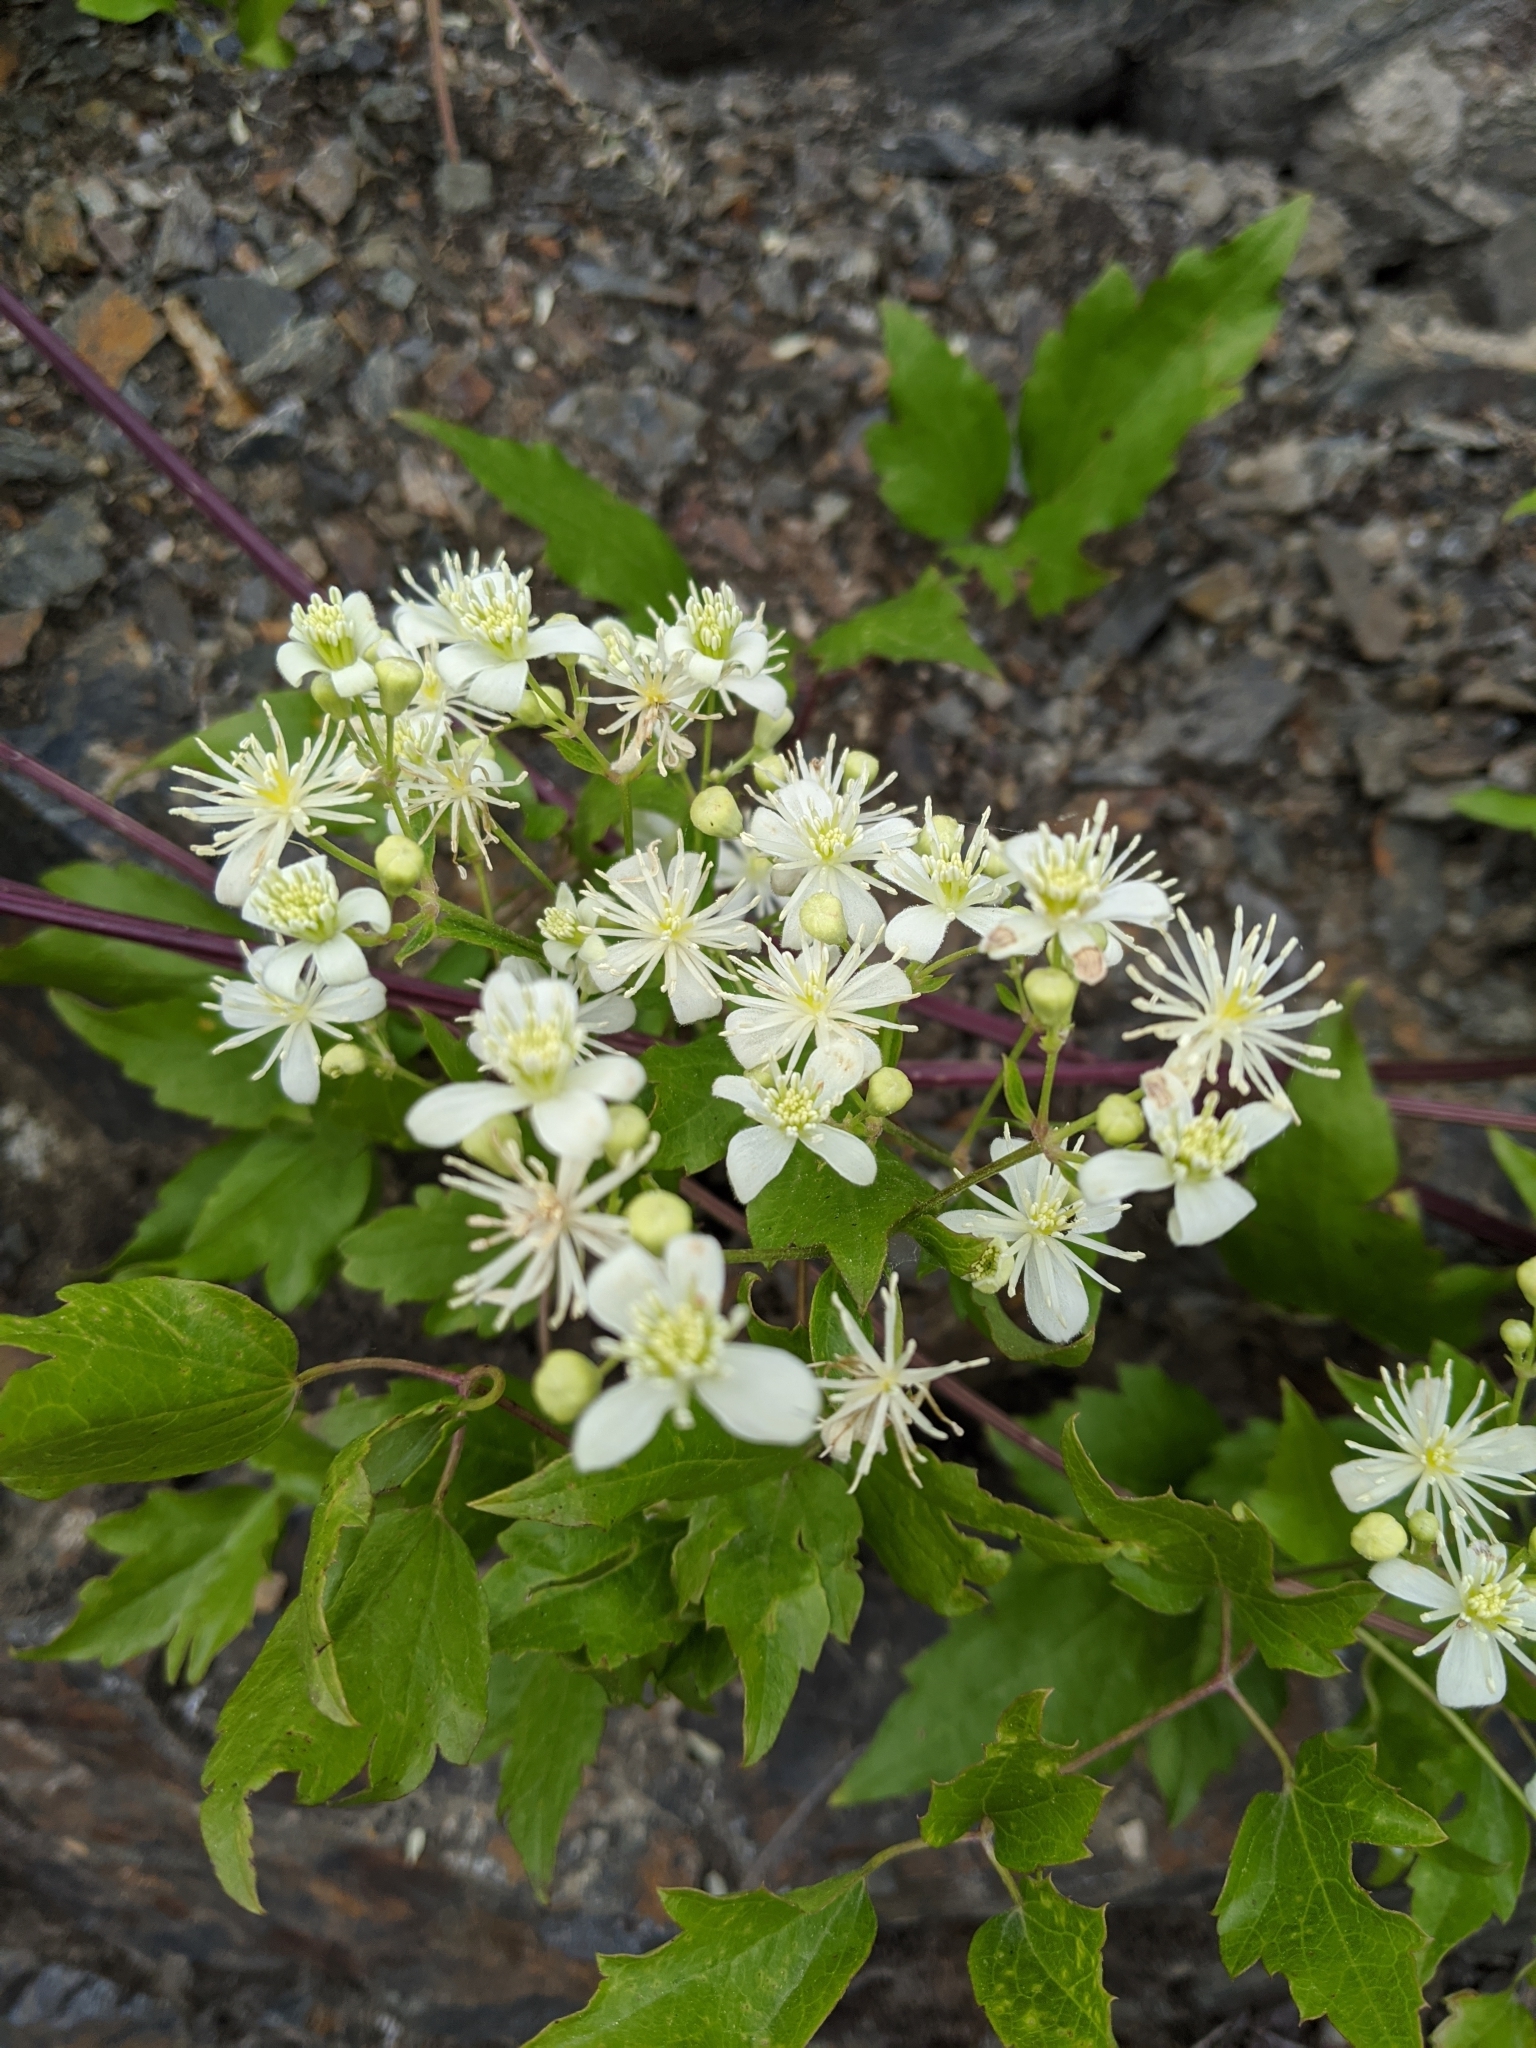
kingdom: Plantae
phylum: Tracheophyta
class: Magnoliopsida
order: Ranunculales
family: Ranunculaceae
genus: Clematis
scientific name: Clematis ligusticifolia
